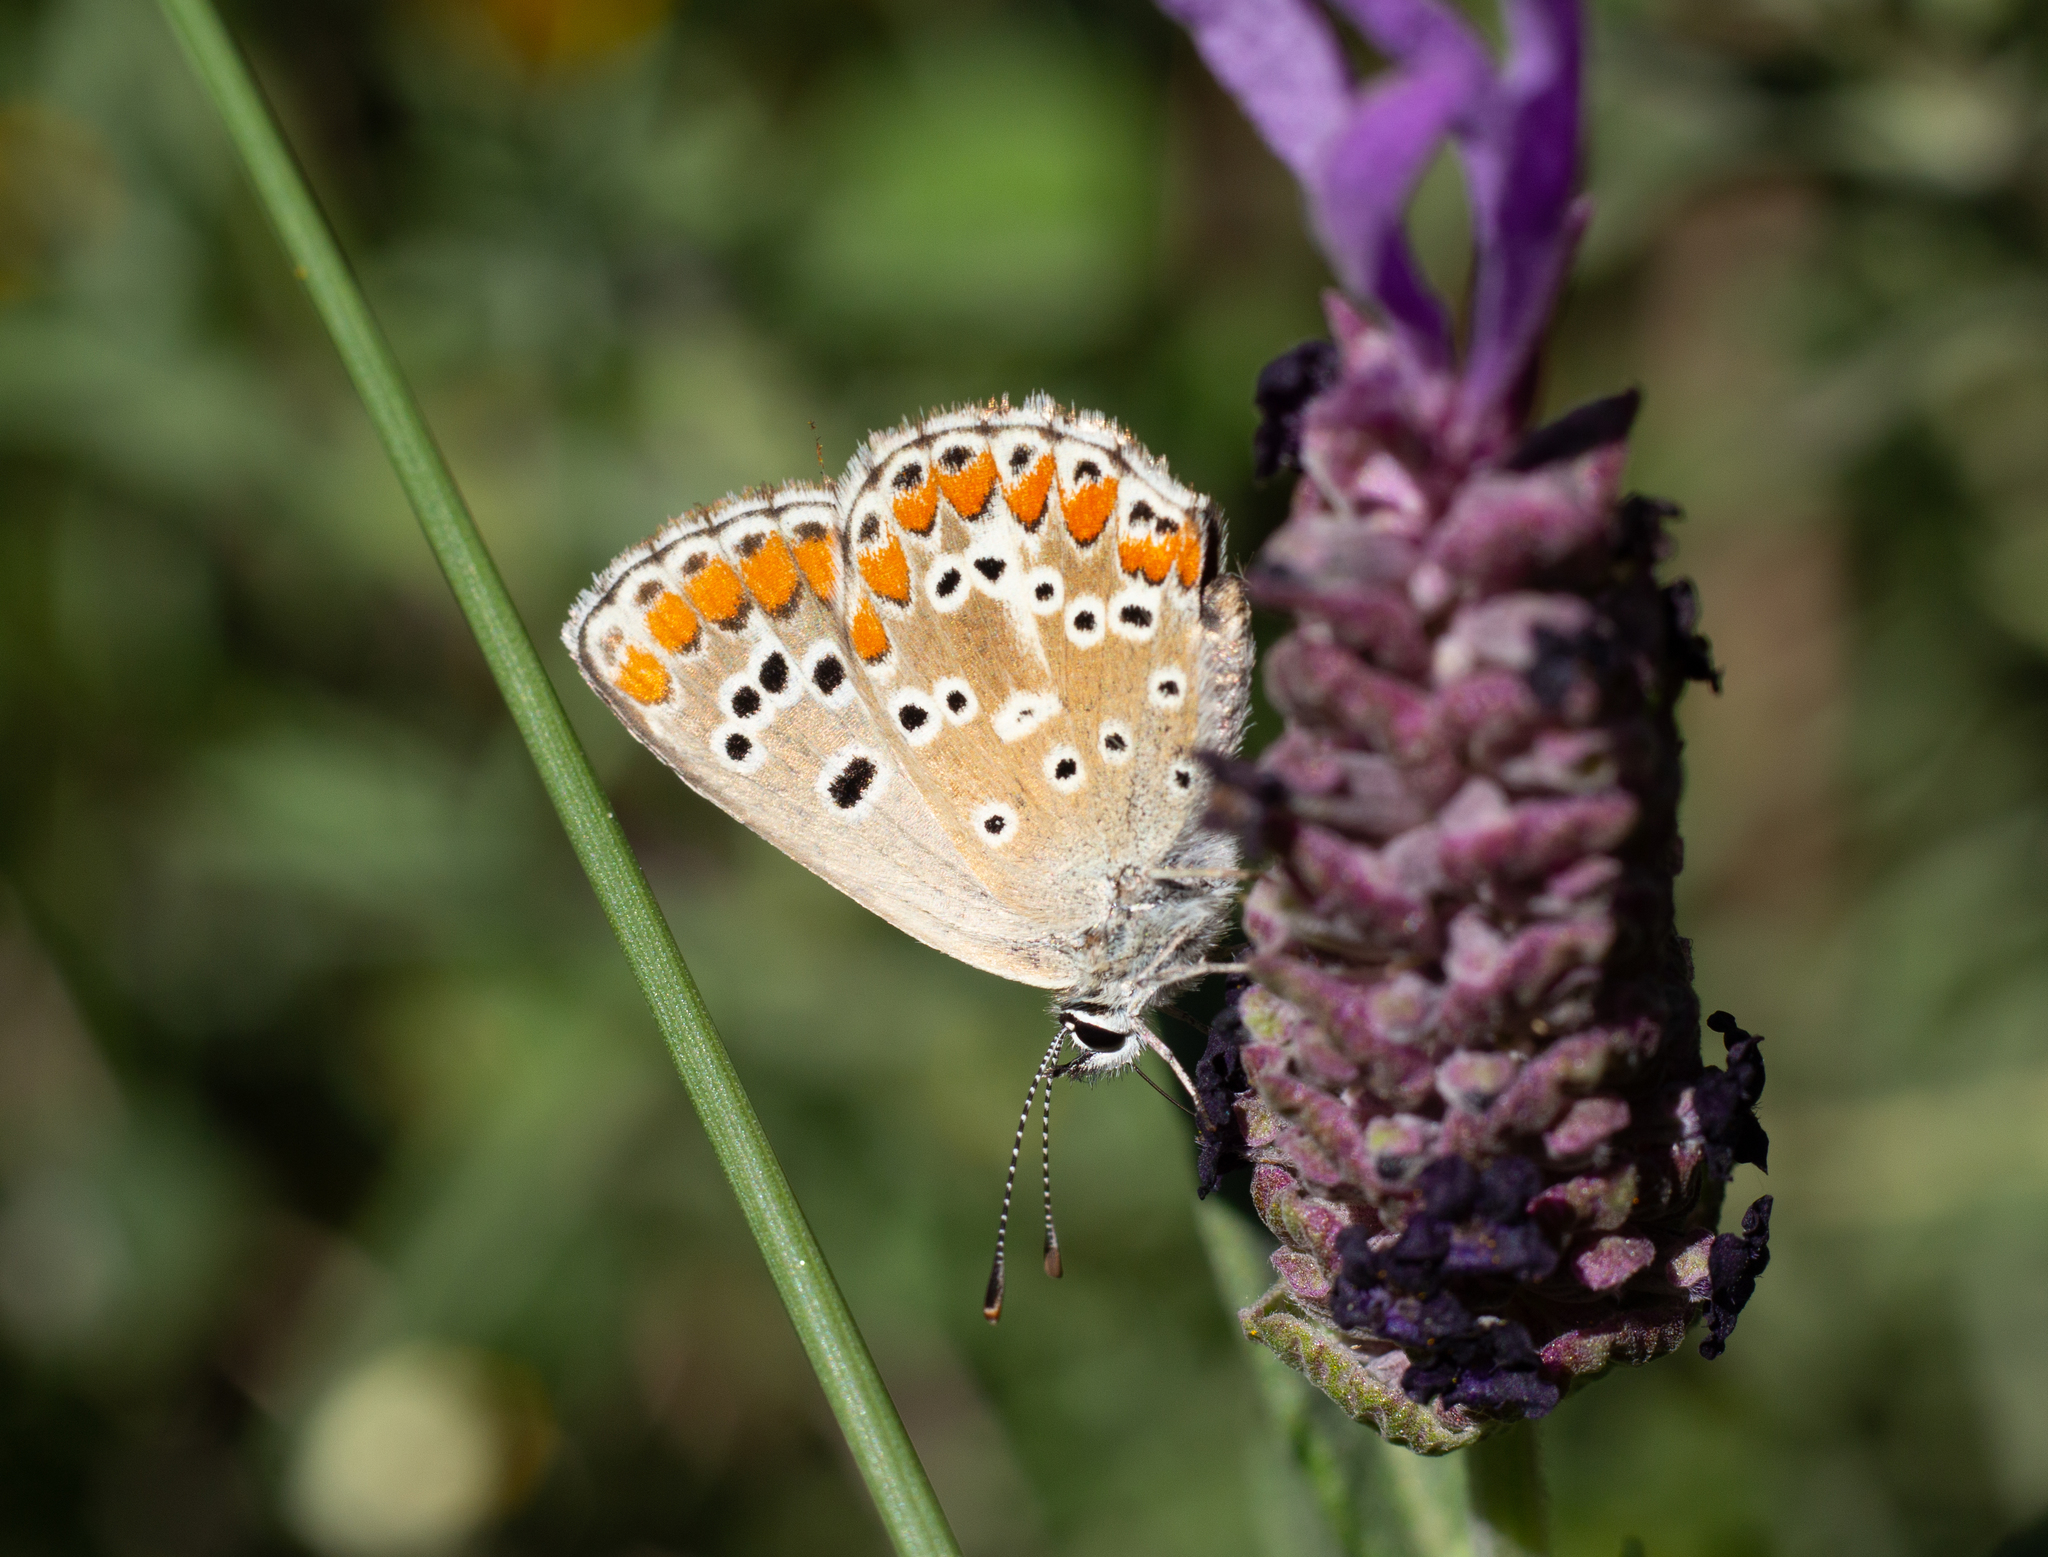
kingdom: Animalia
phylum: Arthropoda
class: Insecta
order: Lepidoptera
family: Lycaenidae
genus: Aricia
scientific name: Aricia cramera
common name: Eschscholtz´s brown  argus
